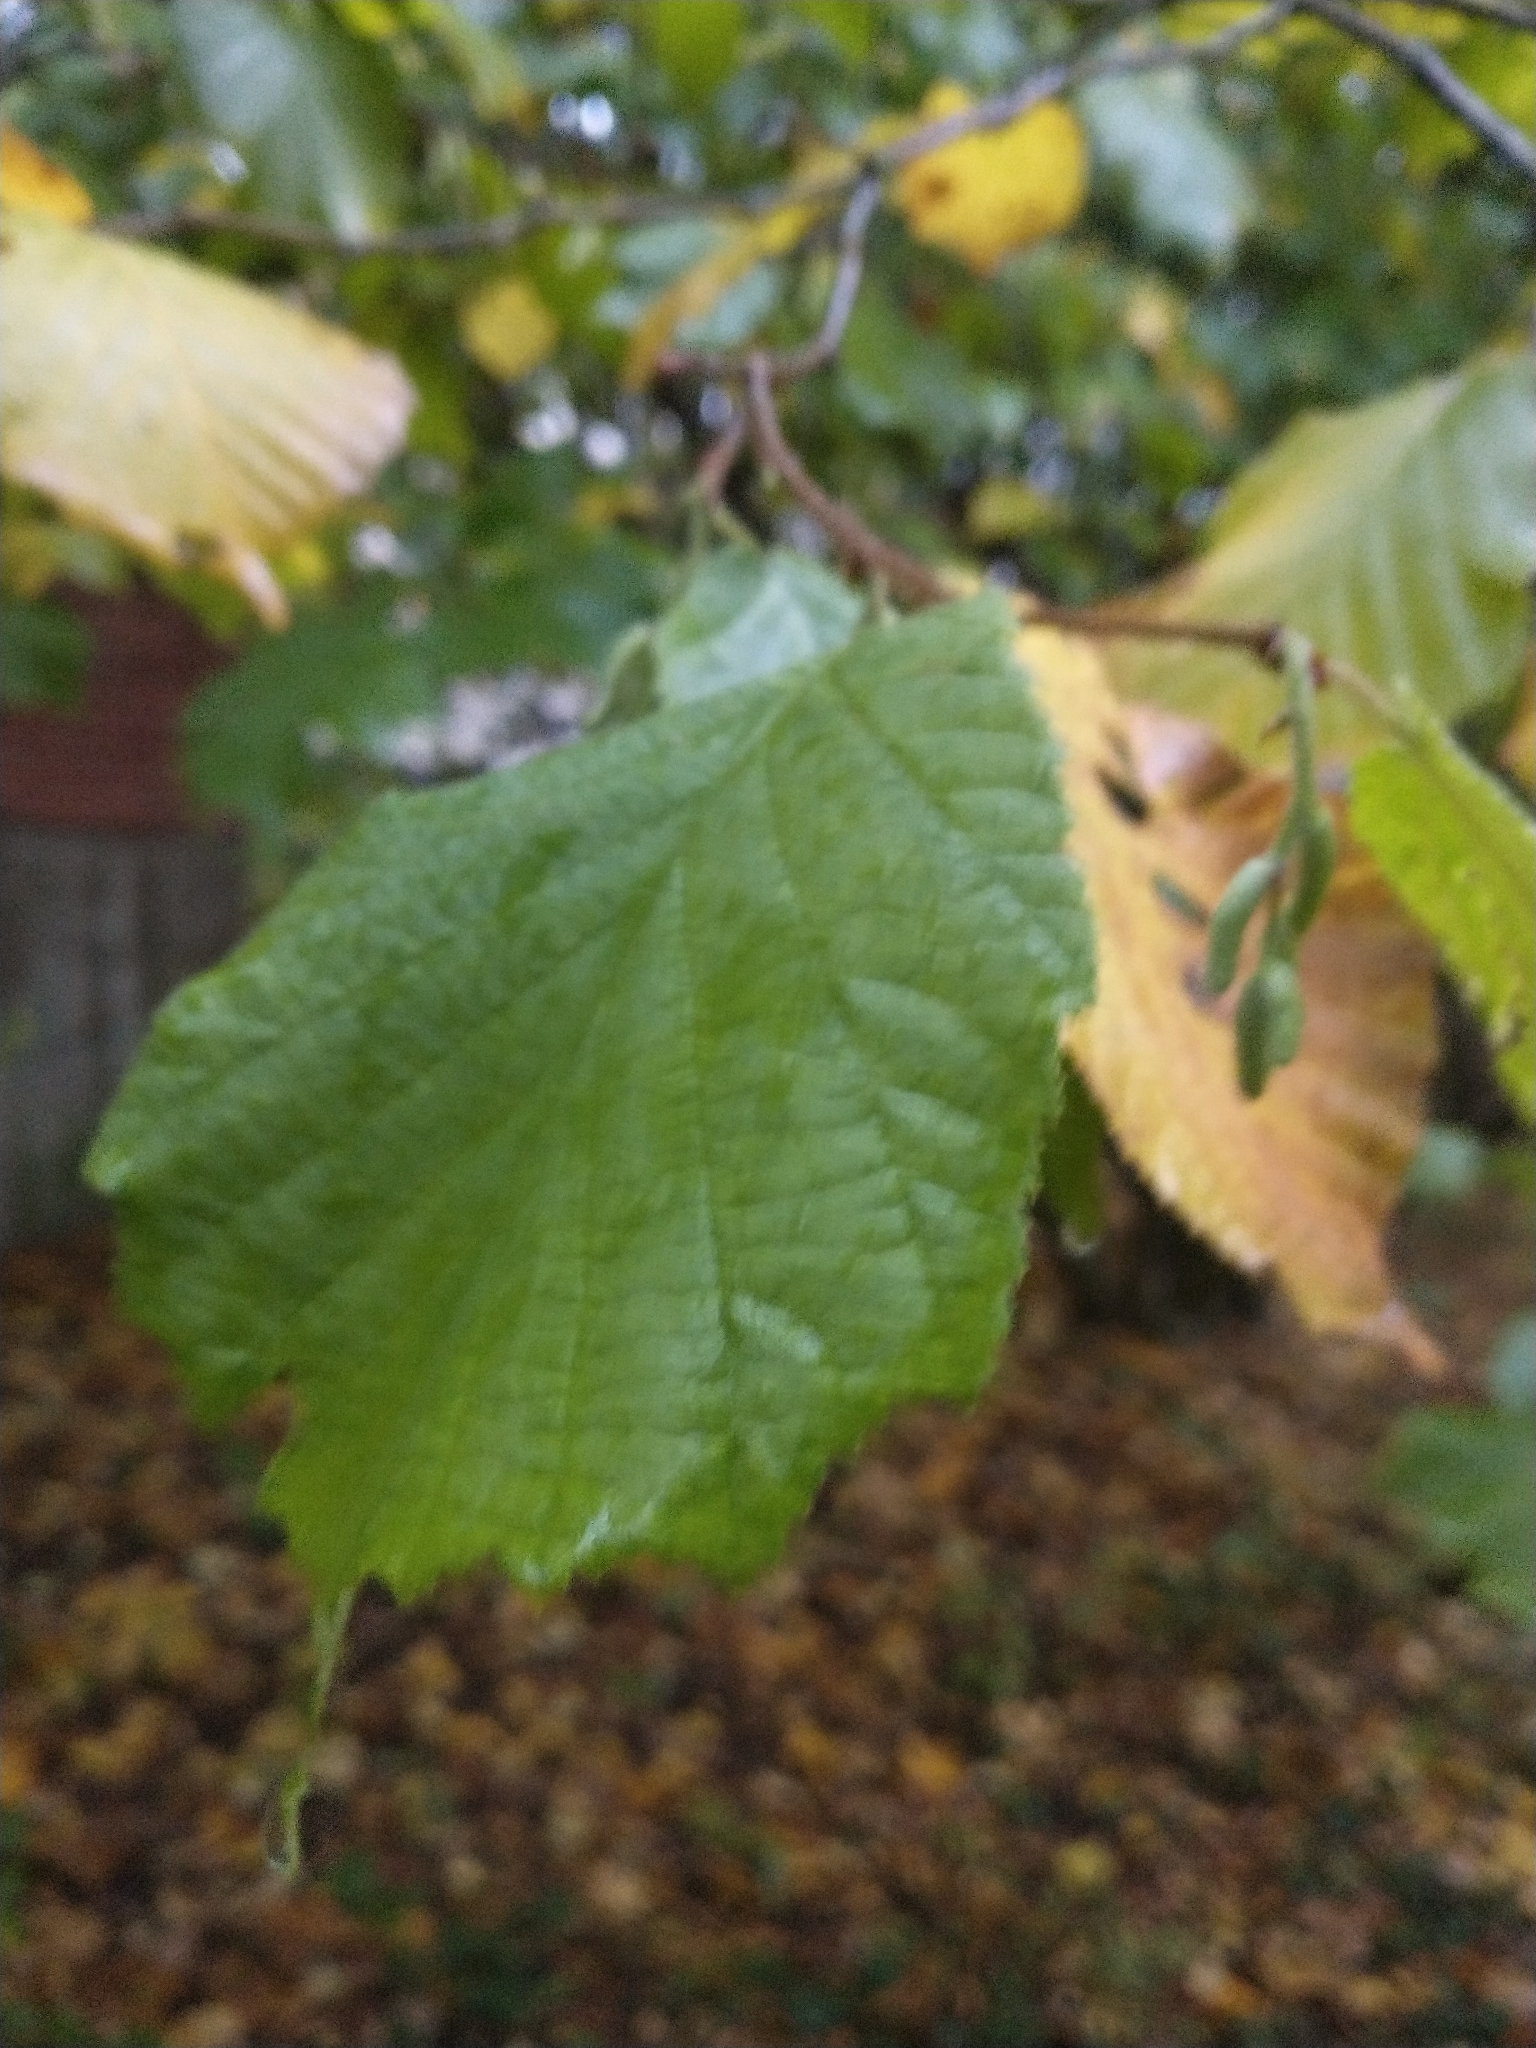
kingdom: Plantae
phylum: Tracheophyta
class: Magnoliopsida
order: Fagales
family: Betulaceae
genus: Corylus
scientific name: Corylus avellana
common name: European hazel
